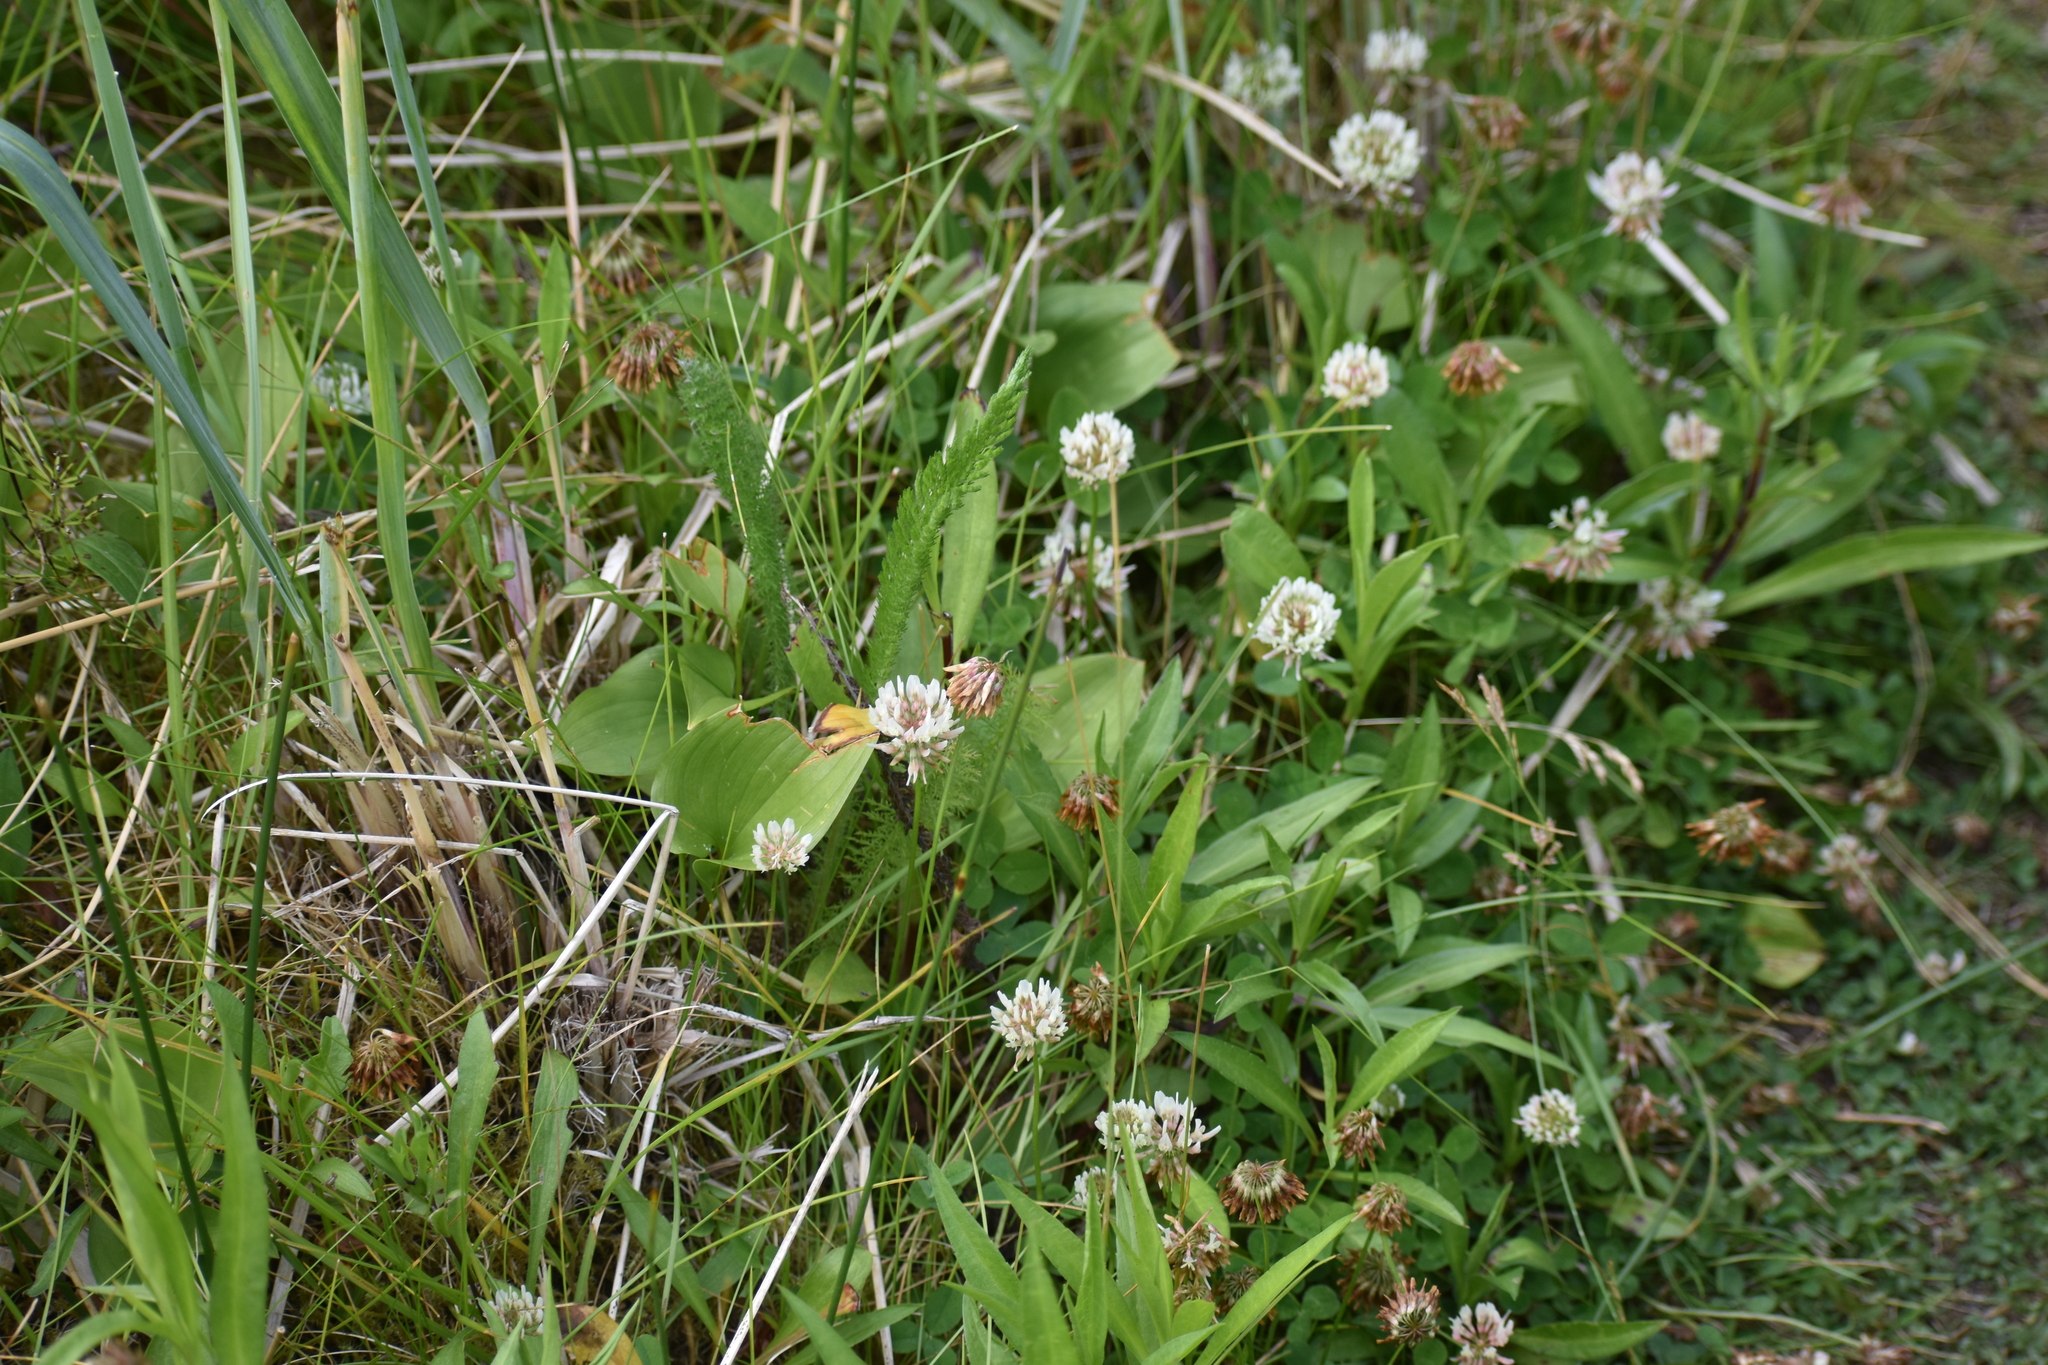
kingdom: Plantae
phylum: Tracheophyta
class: Magnoliopsida
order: Fabales
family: Fabaceae
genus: Trifolium
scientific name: Trifolium repens
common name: White clover
